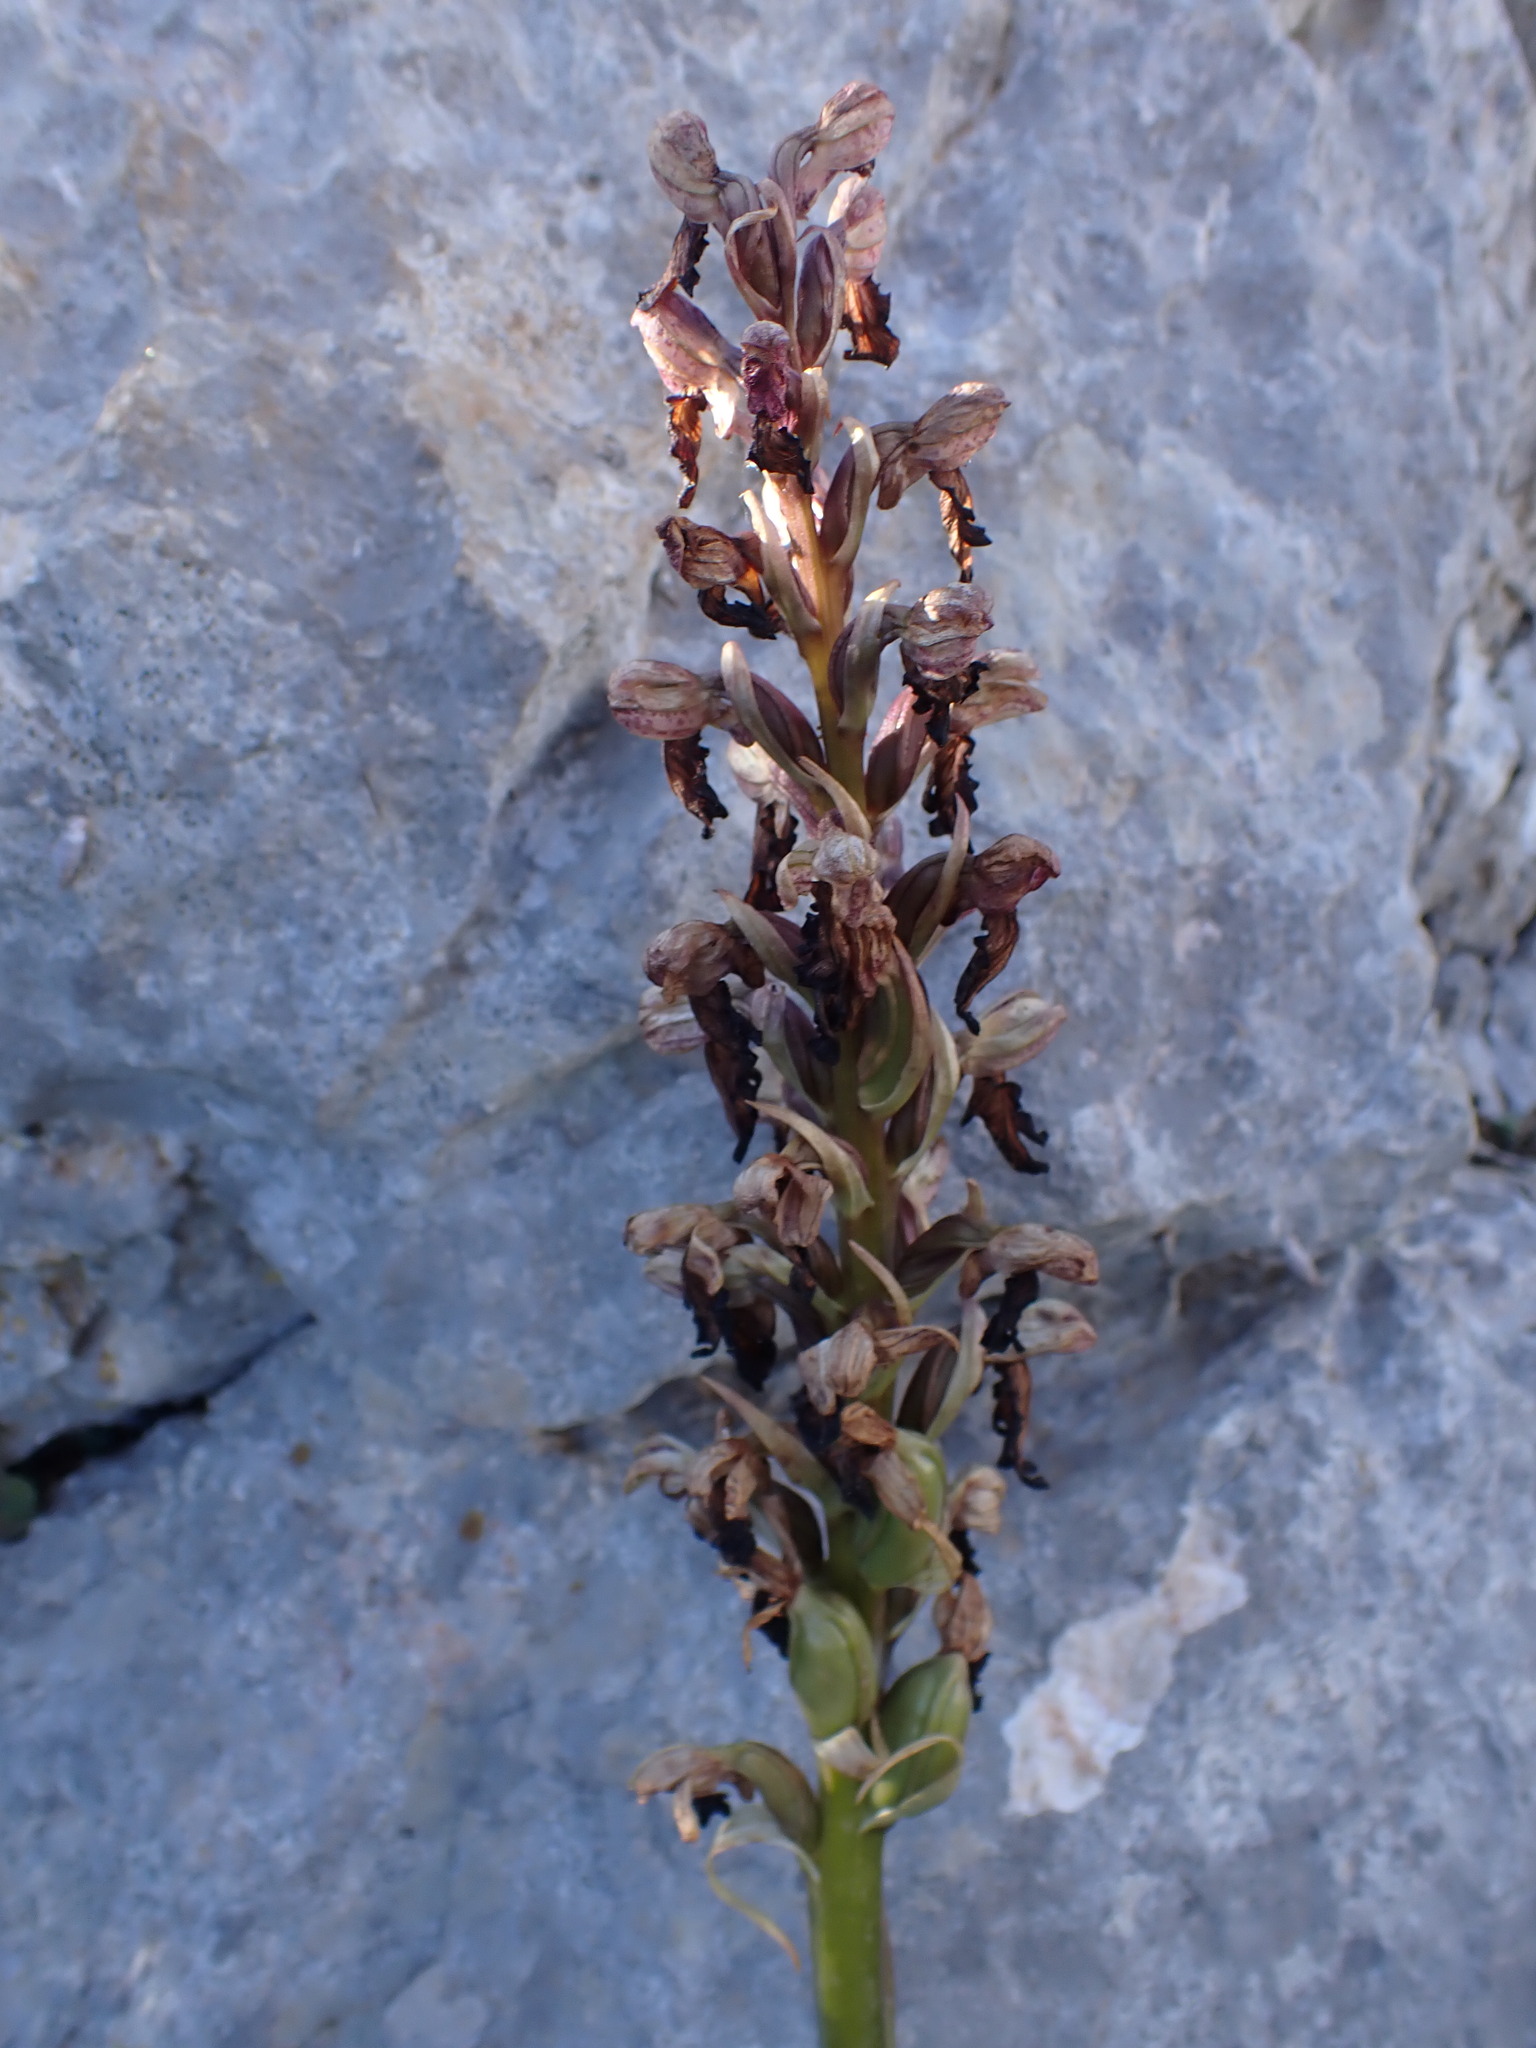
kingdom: Plantae
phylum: Tracheophyta
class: Liliopsida
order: Asparagales
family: Orchidaceae
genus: Himantoglossum
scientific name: Himantoglossum robertianum
